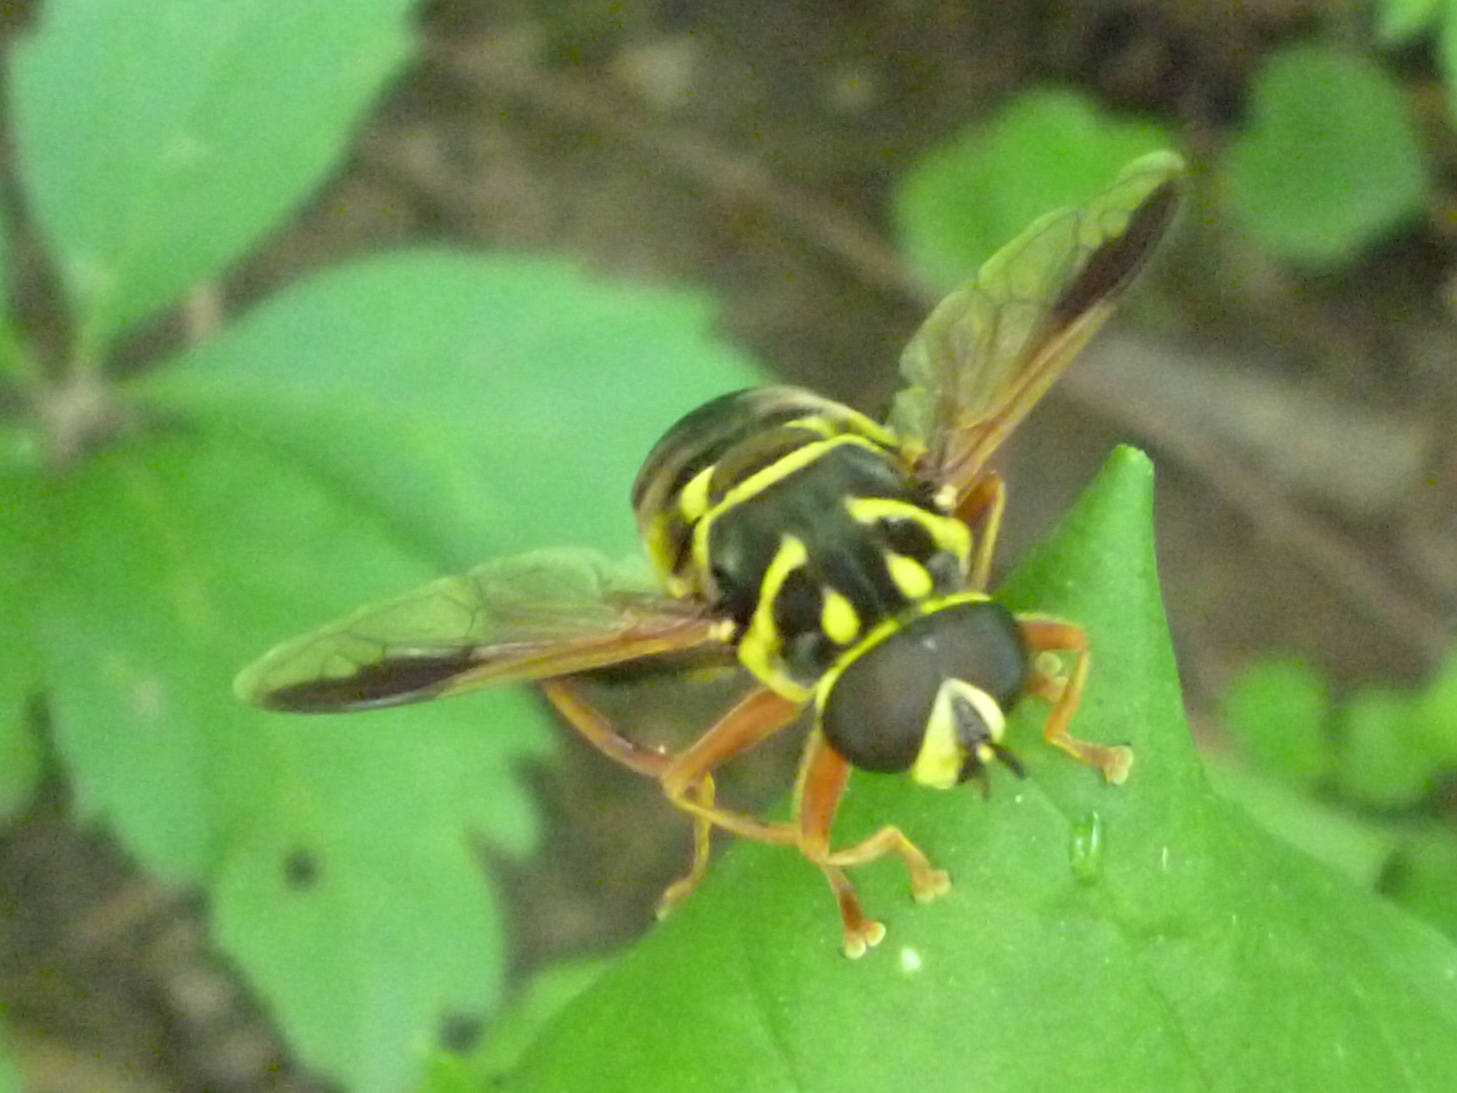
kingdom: Animalia
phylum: Arthropoda
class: Insecta
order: Diptera
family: Syrphidae
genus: Meromacrus
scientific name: Meromacrus acutus
